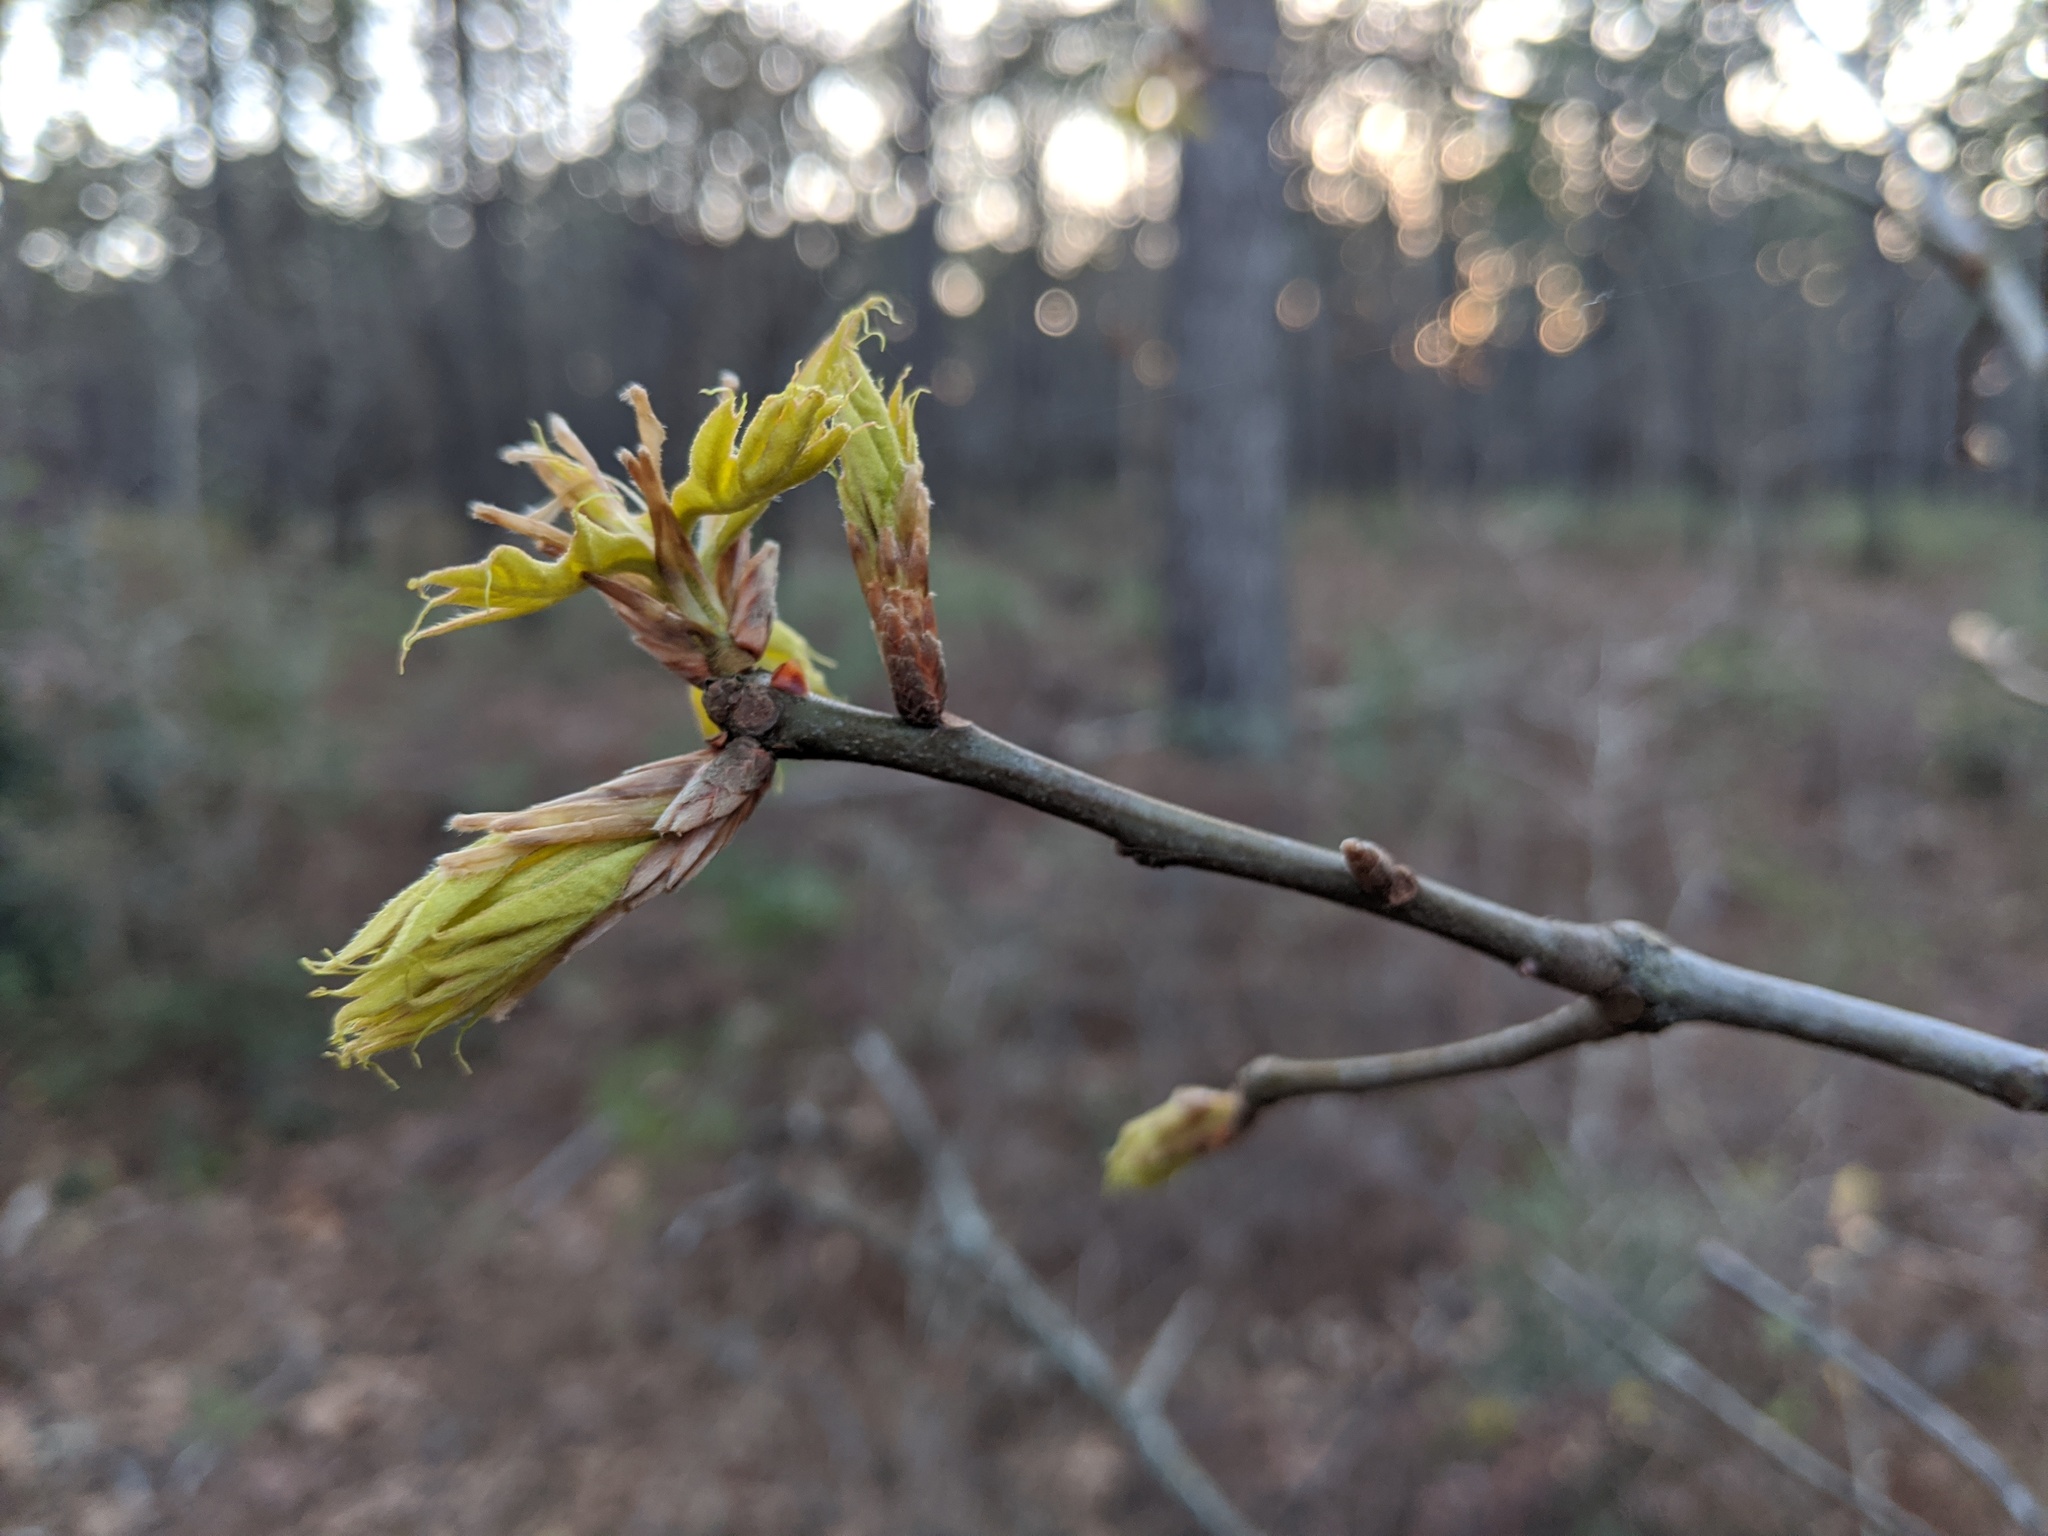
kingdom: Plantae
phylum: Tracheophyta
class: Magnoliopsida
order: Fagales
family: Fagaceae
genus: Quercus
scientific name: Quercus laevis
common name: Turkey oak
